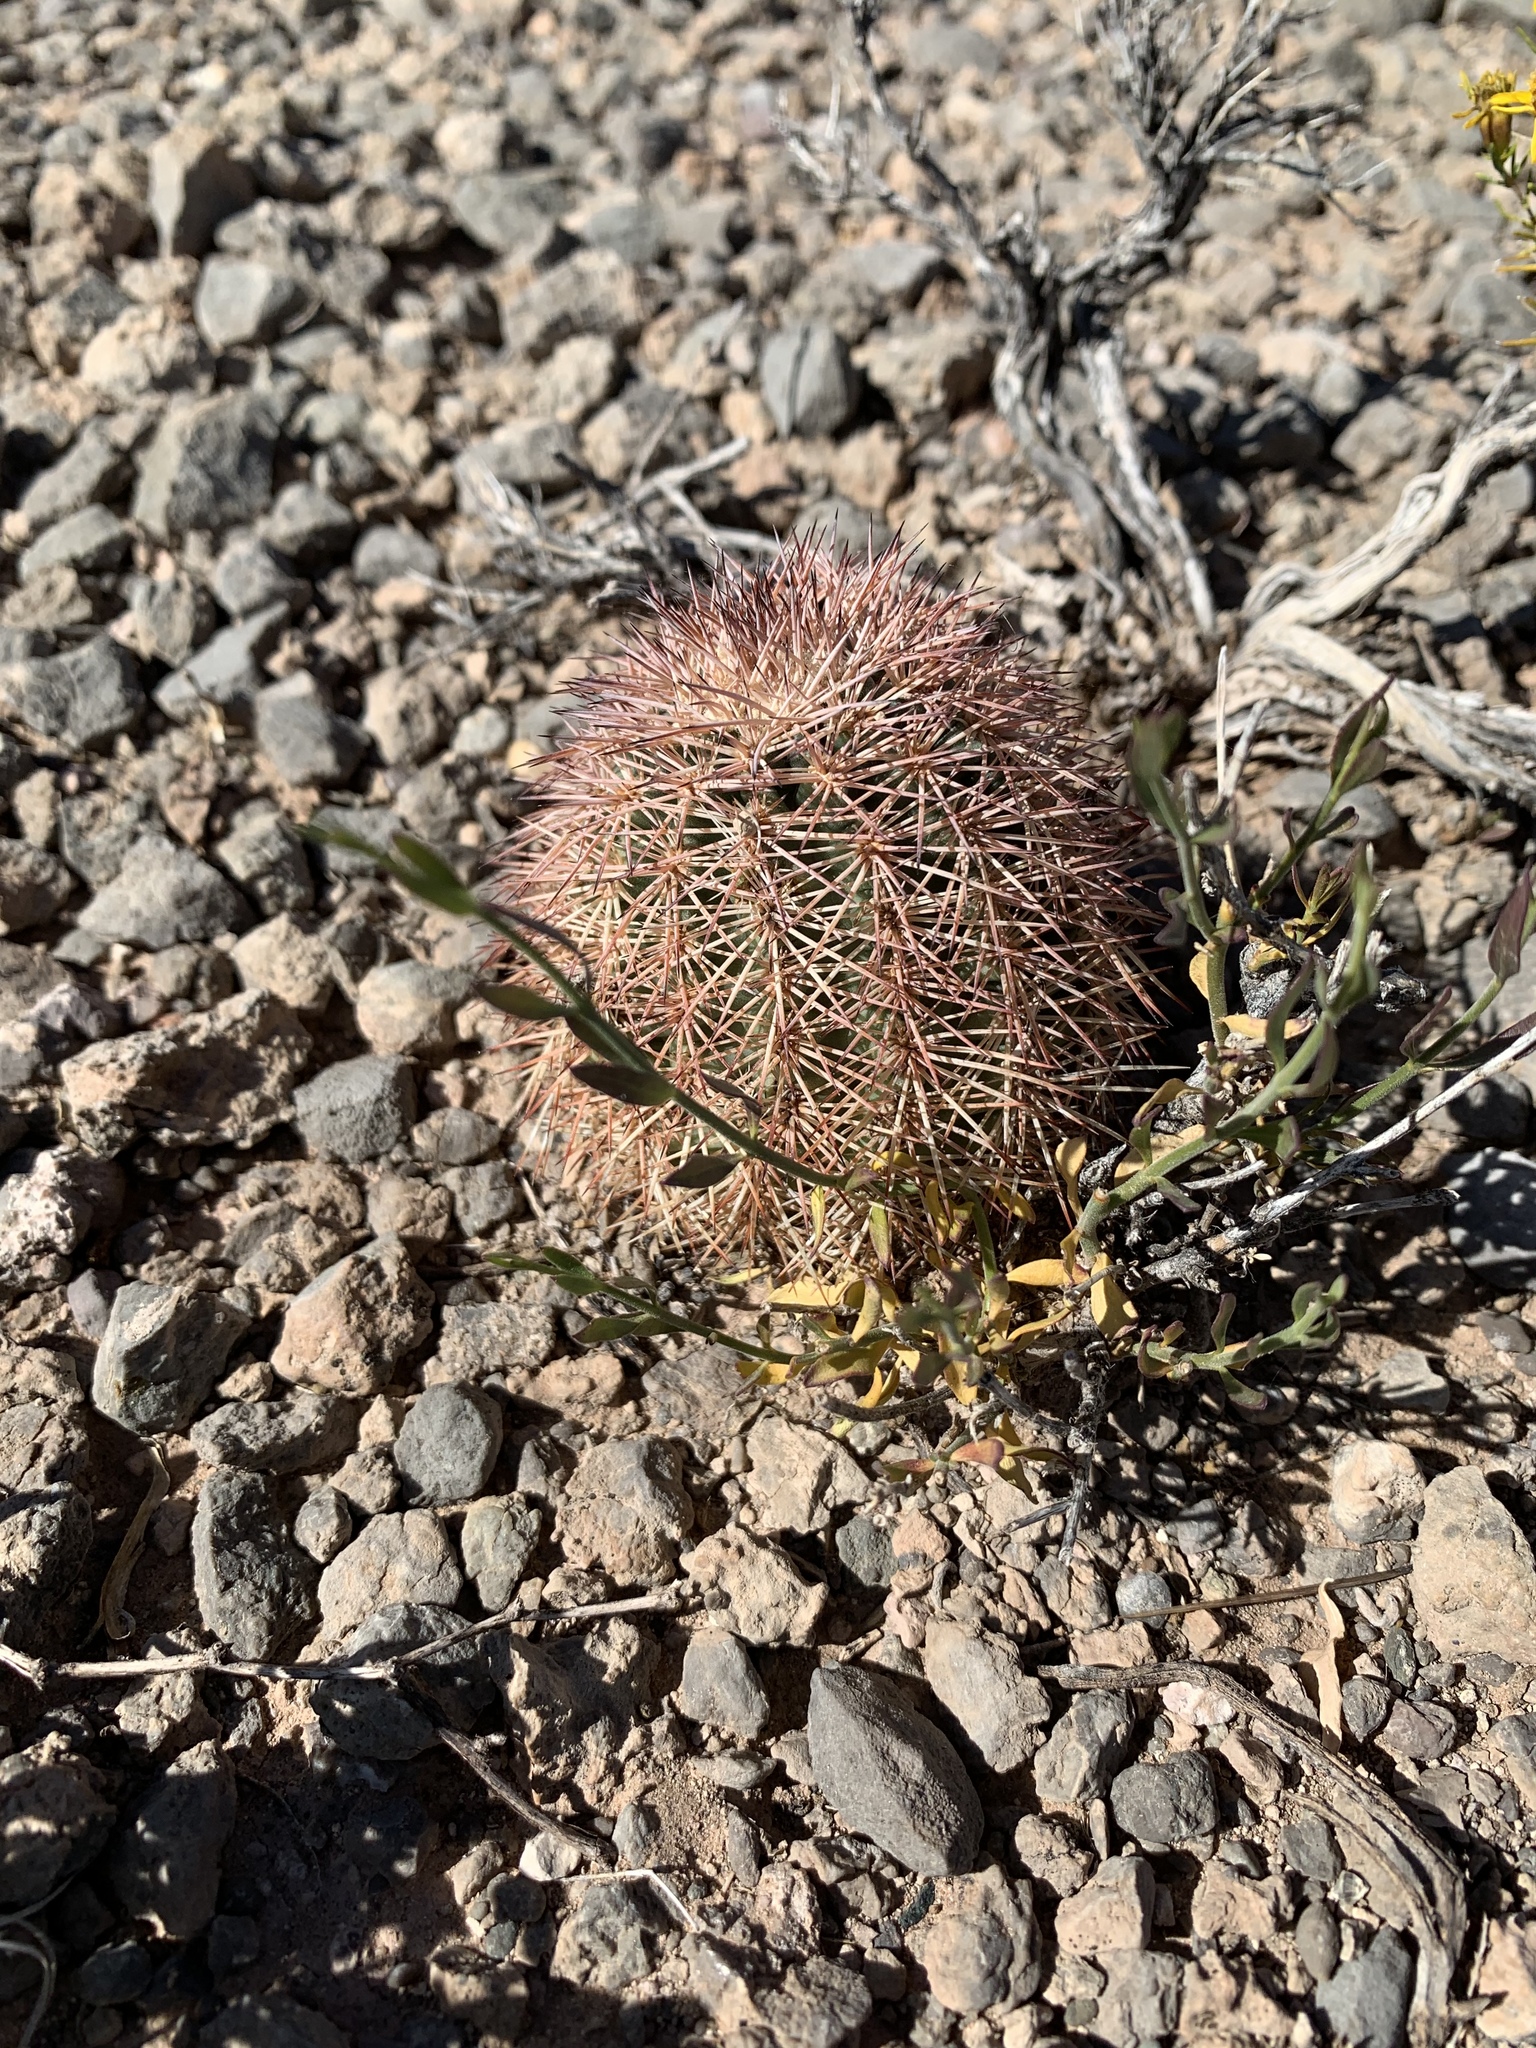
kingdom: Plantae
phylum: Tracheophyta
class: Magnoliopsida
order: Caryophyllales
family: Cactaceae
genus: Echinocereus
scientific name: Echinocereus dasyacanthus
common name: Spiny hedgehog cactus
